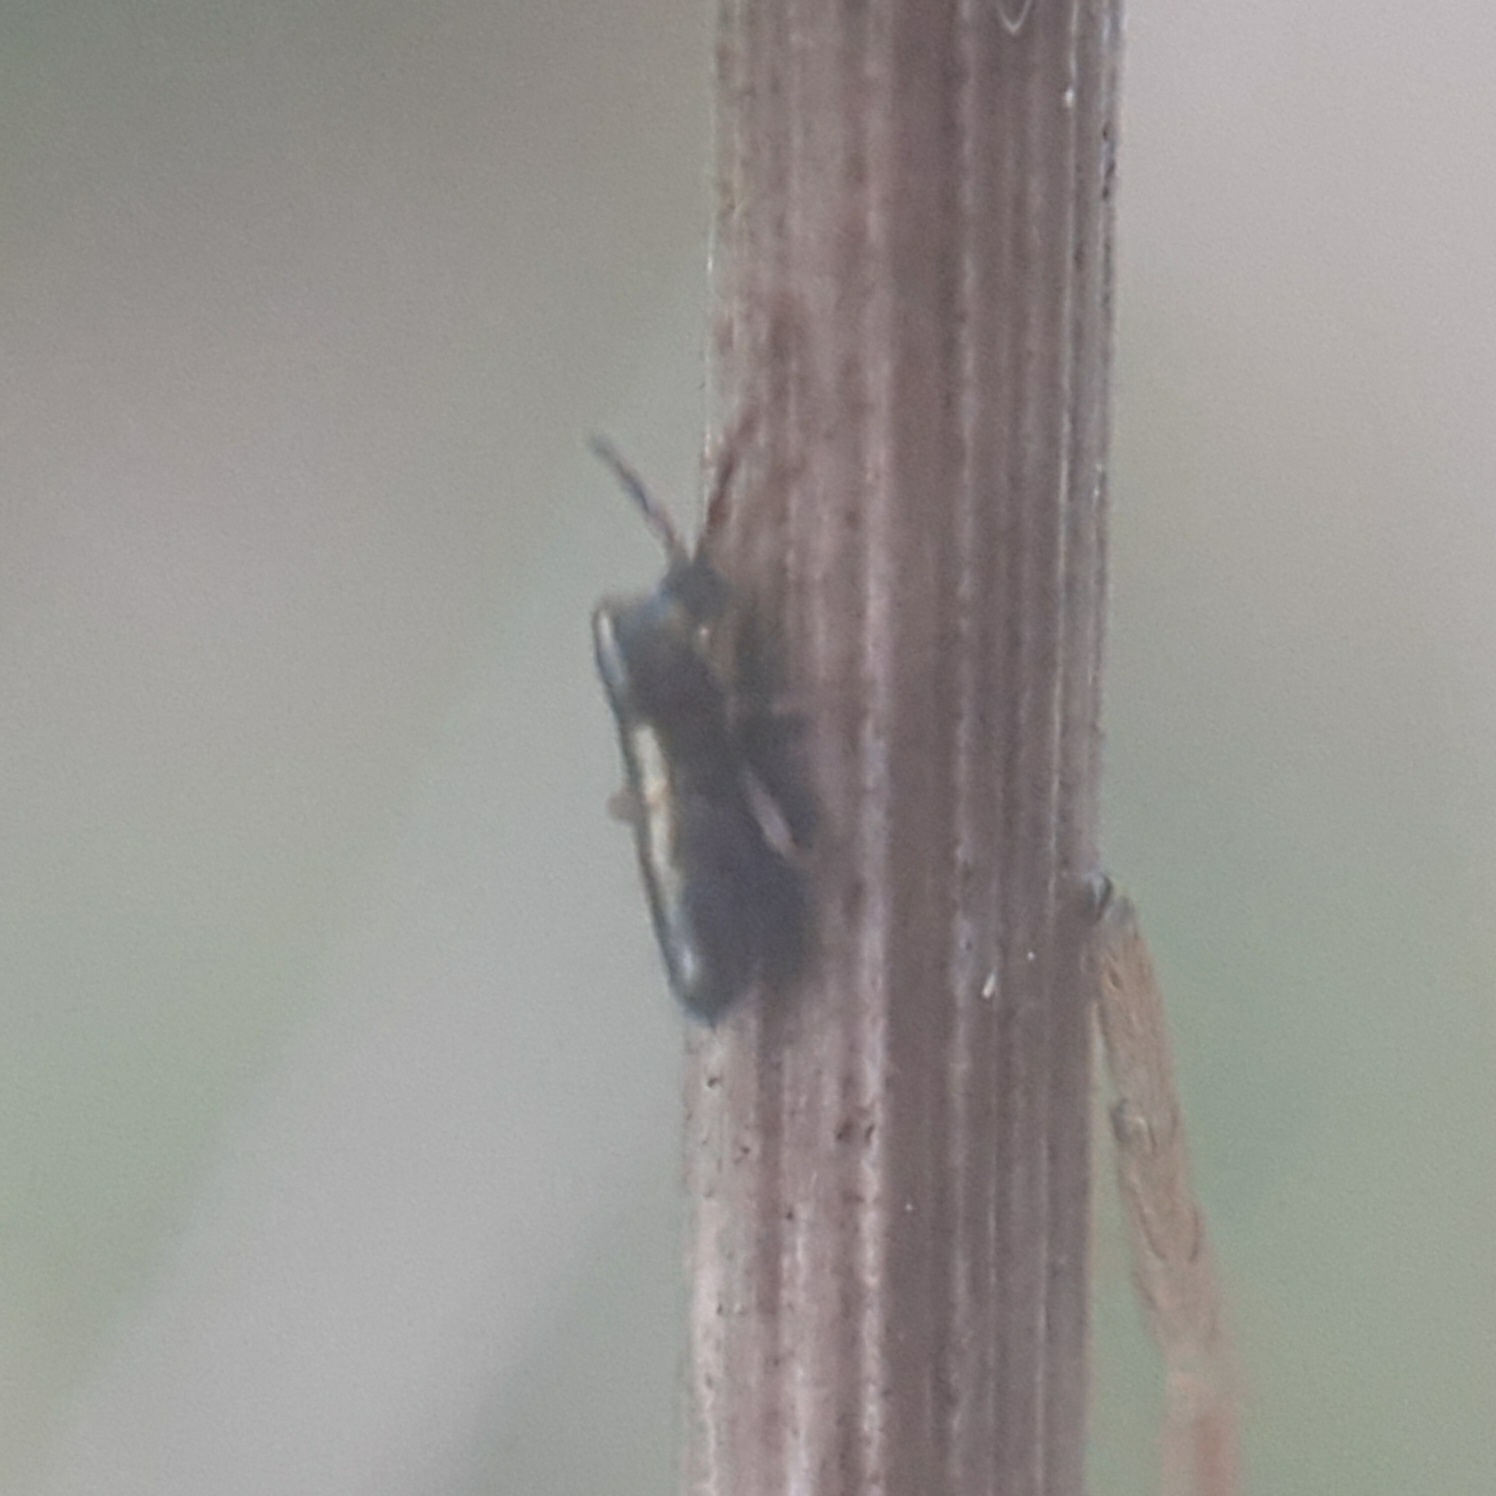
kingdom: Animalia
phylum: Arthropoda
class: Collembola
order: Entomobryomorpha
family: Entomobryidae
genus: Lepidocyrtus
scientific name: Lepidocyrtus paradoxus
